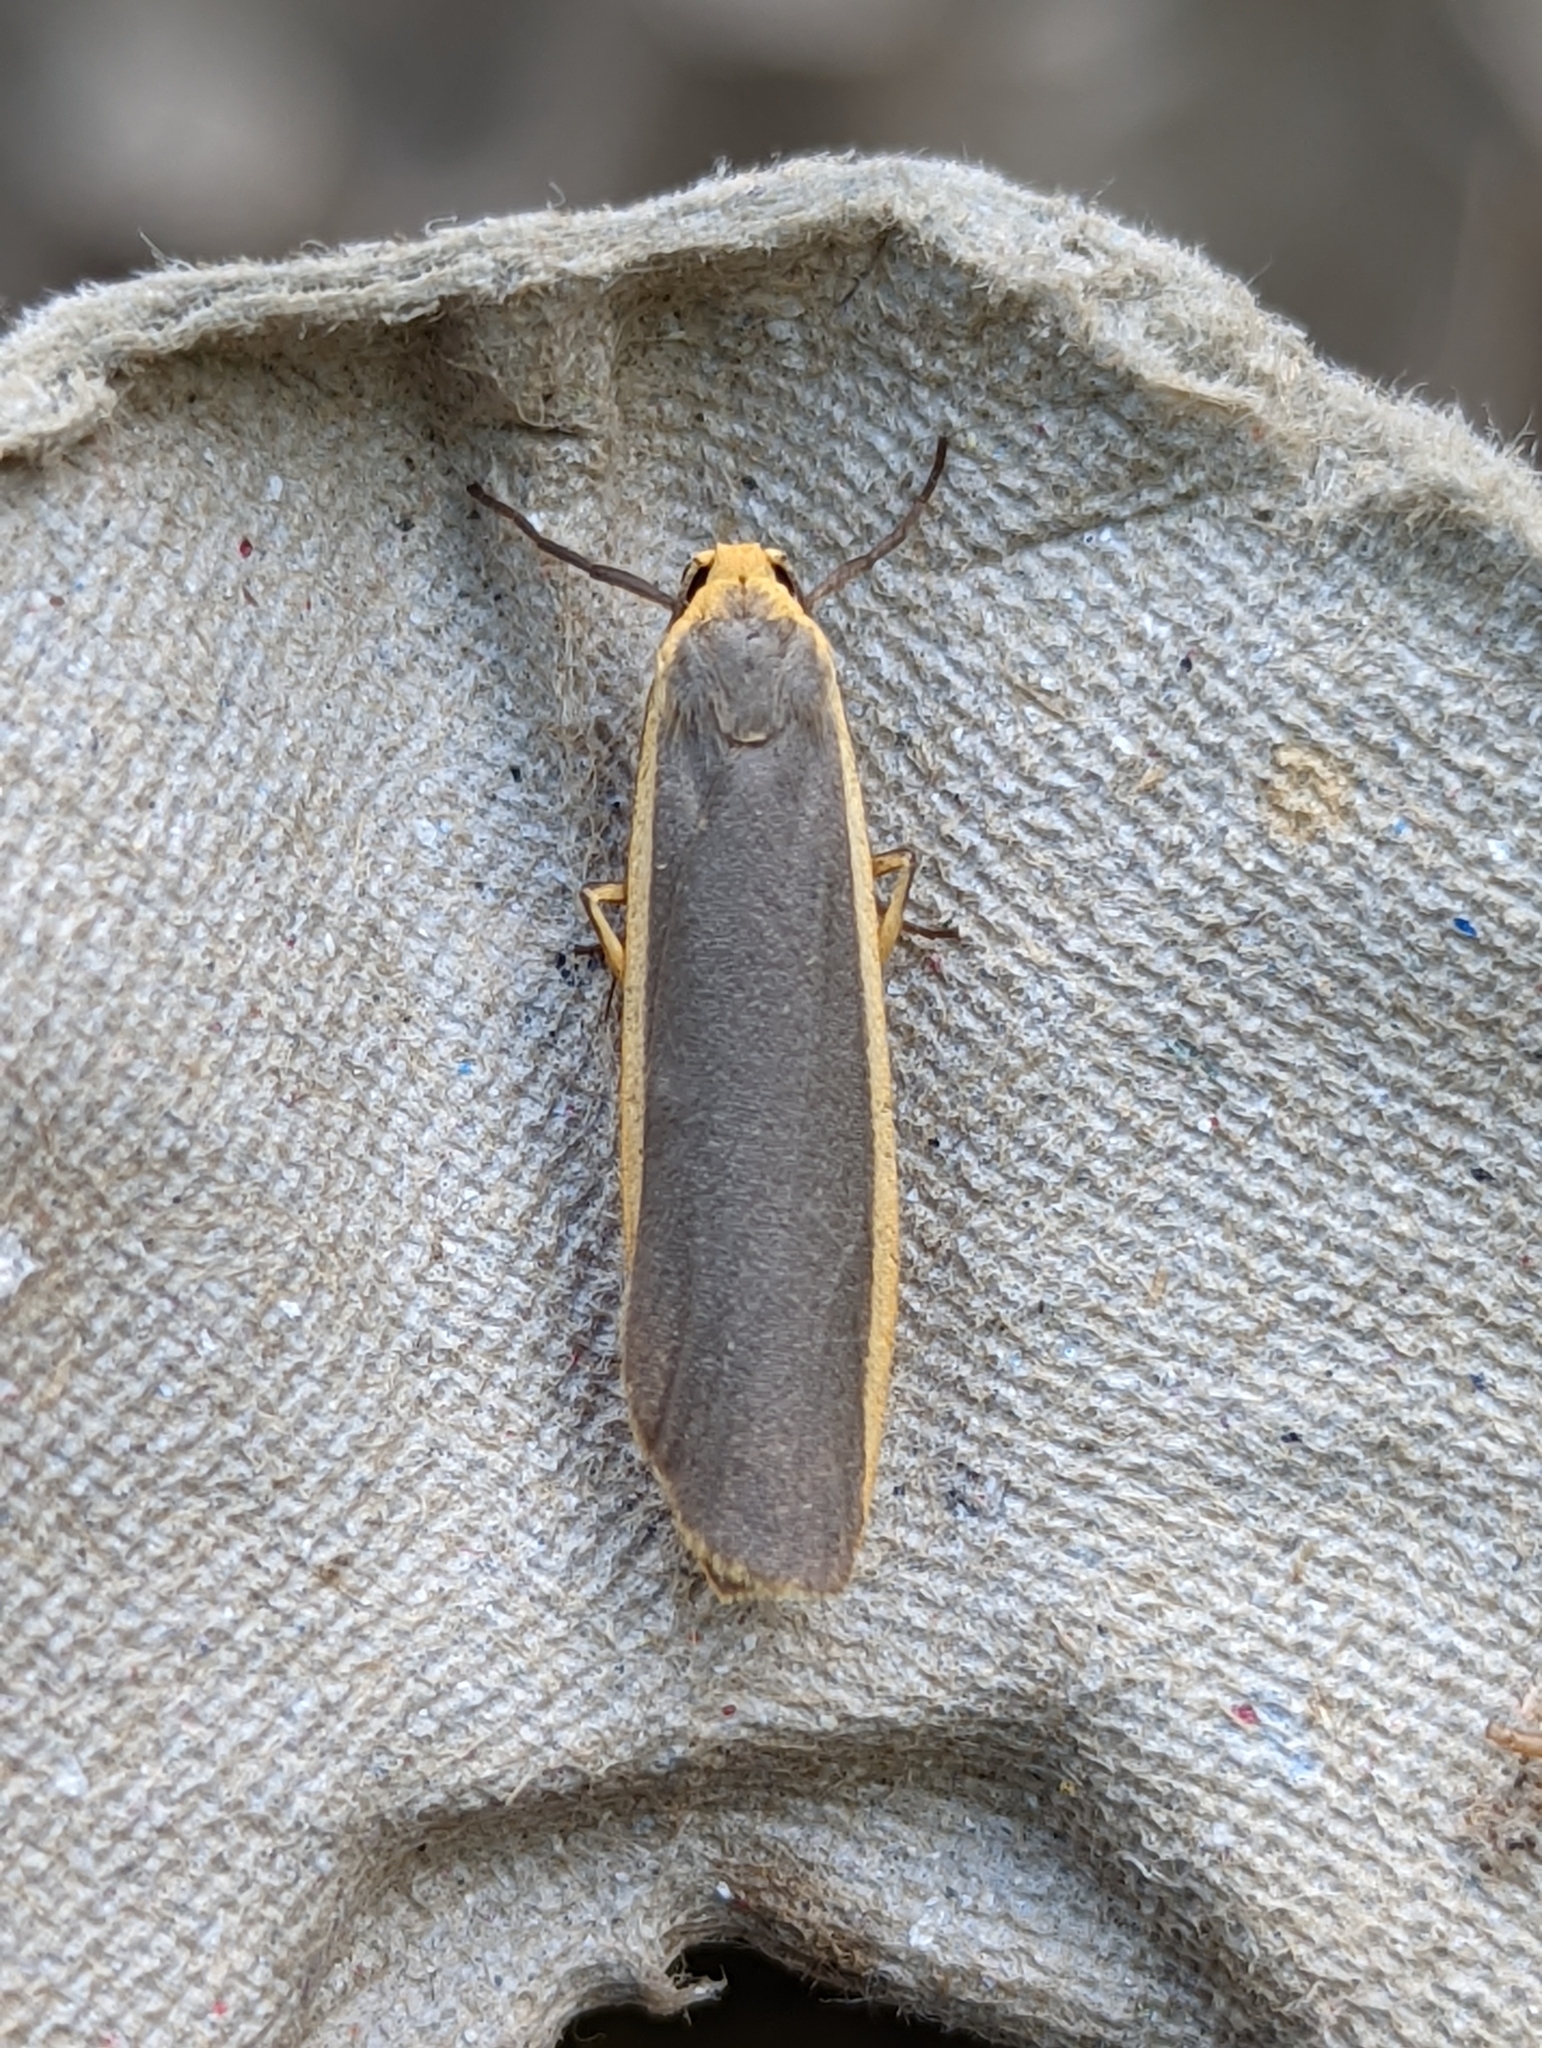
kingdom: Animalia
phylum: Arthropoda
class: Insecta
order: Lepidoptera
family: Erebidae
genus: Nyea
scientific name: Nyea lurideola
